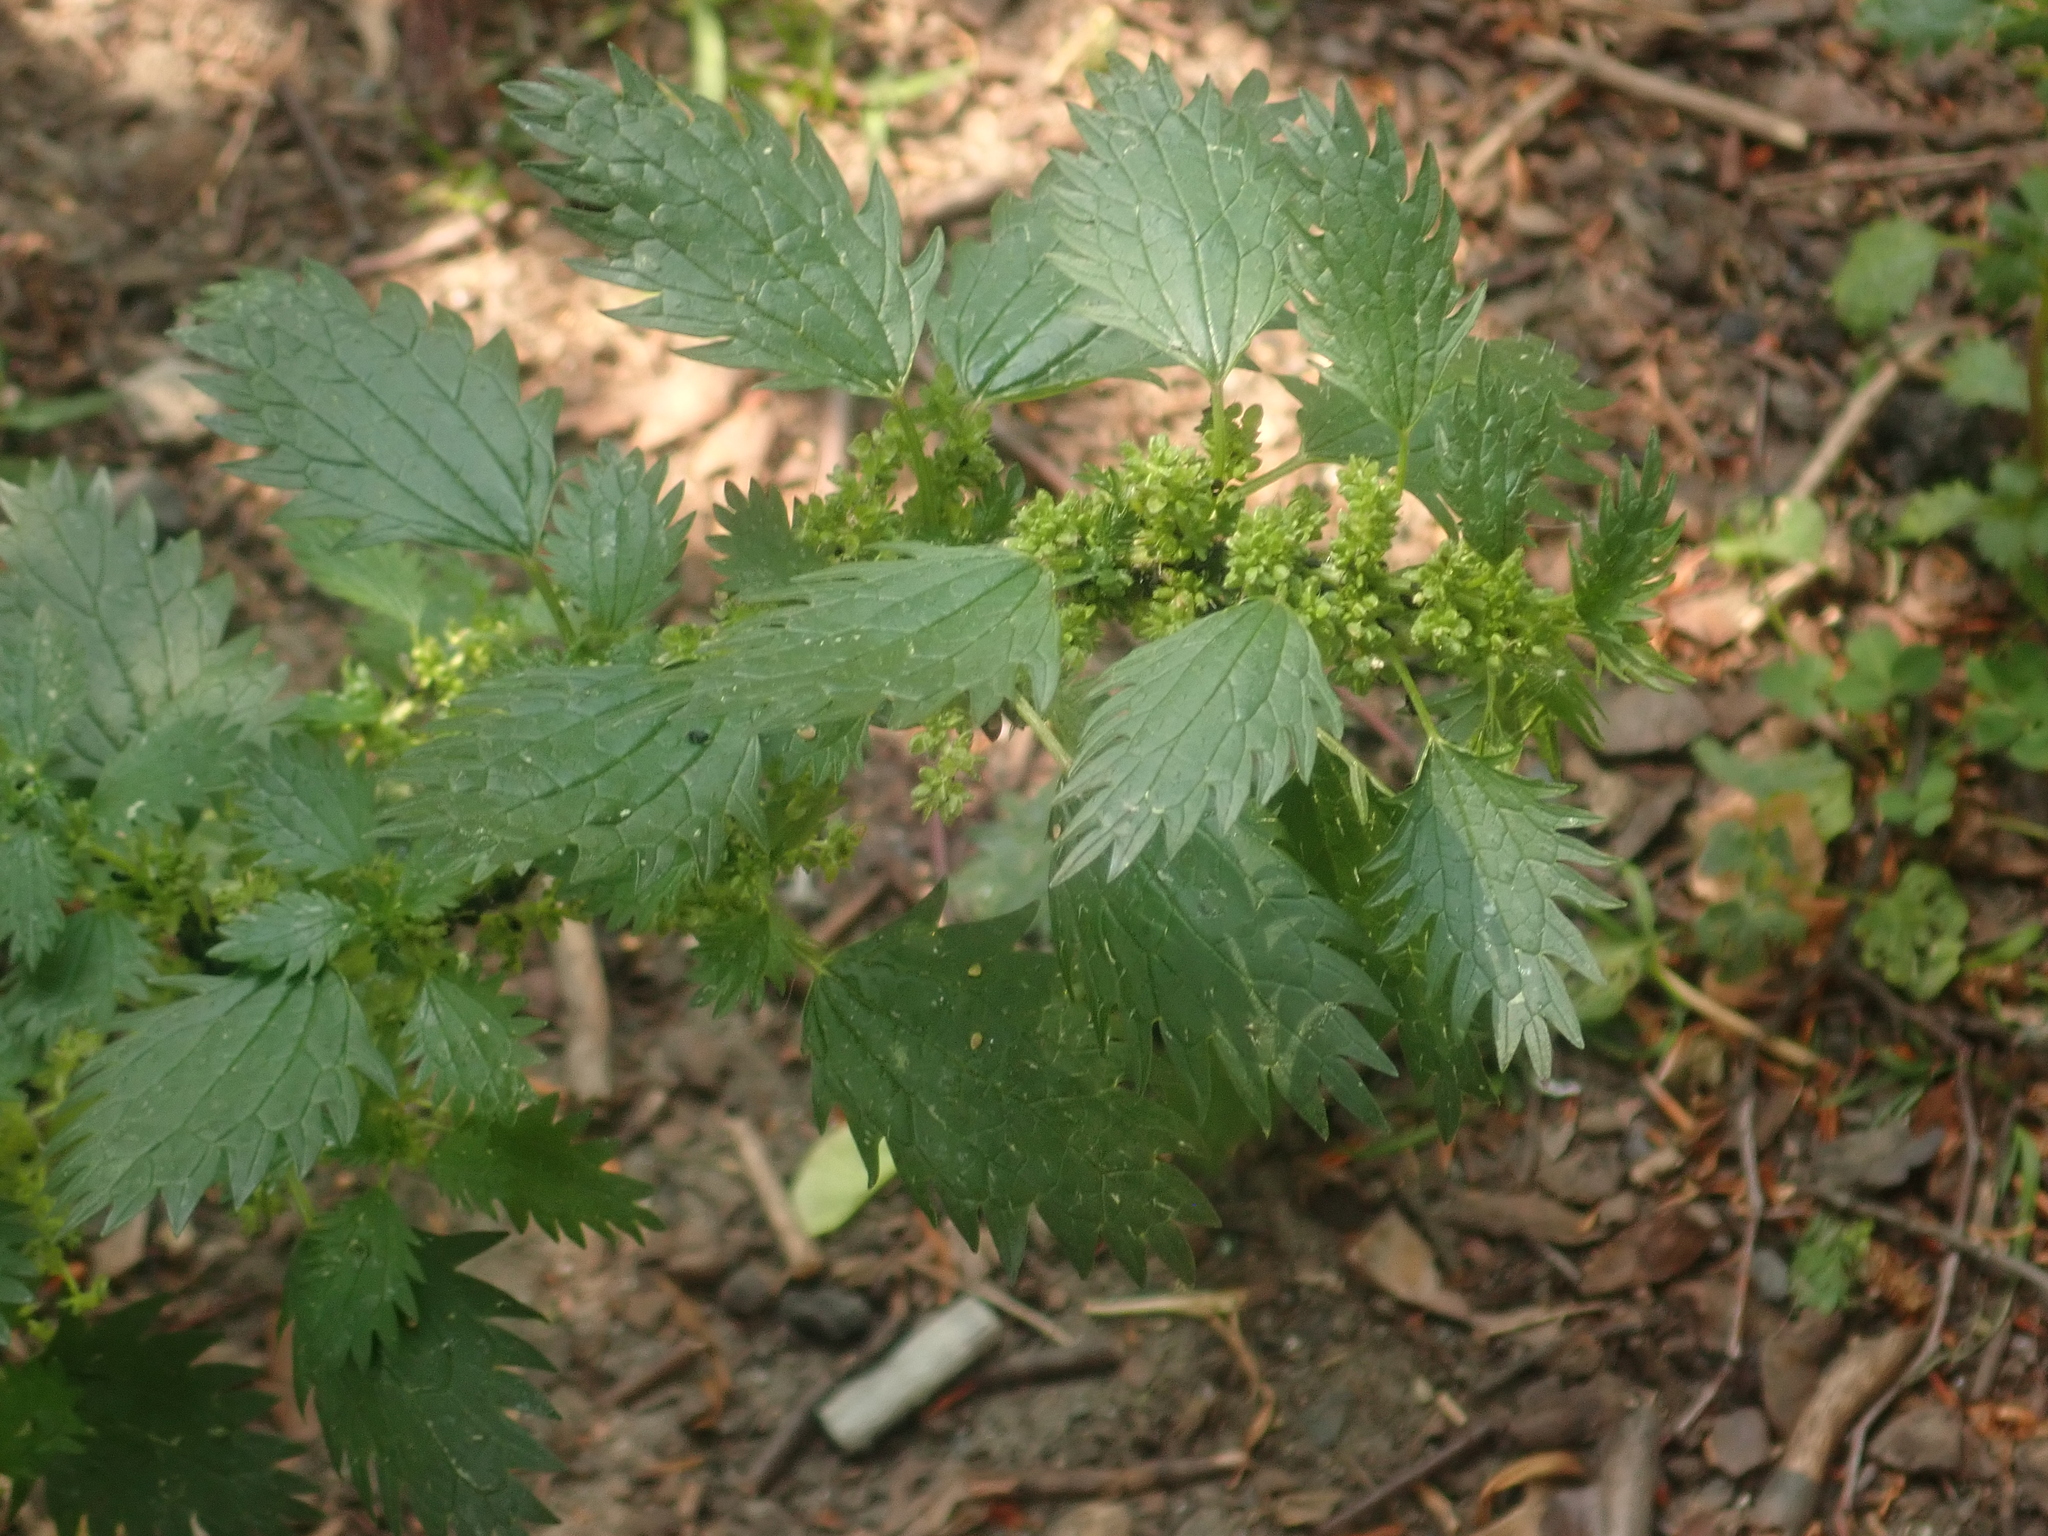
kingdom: Plantae
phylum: Tracheophyta
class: Magnoliopsida
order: Rosales
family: Urticaceae
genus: Urtica
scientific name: Urtica urens
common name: Dwarf nettle
